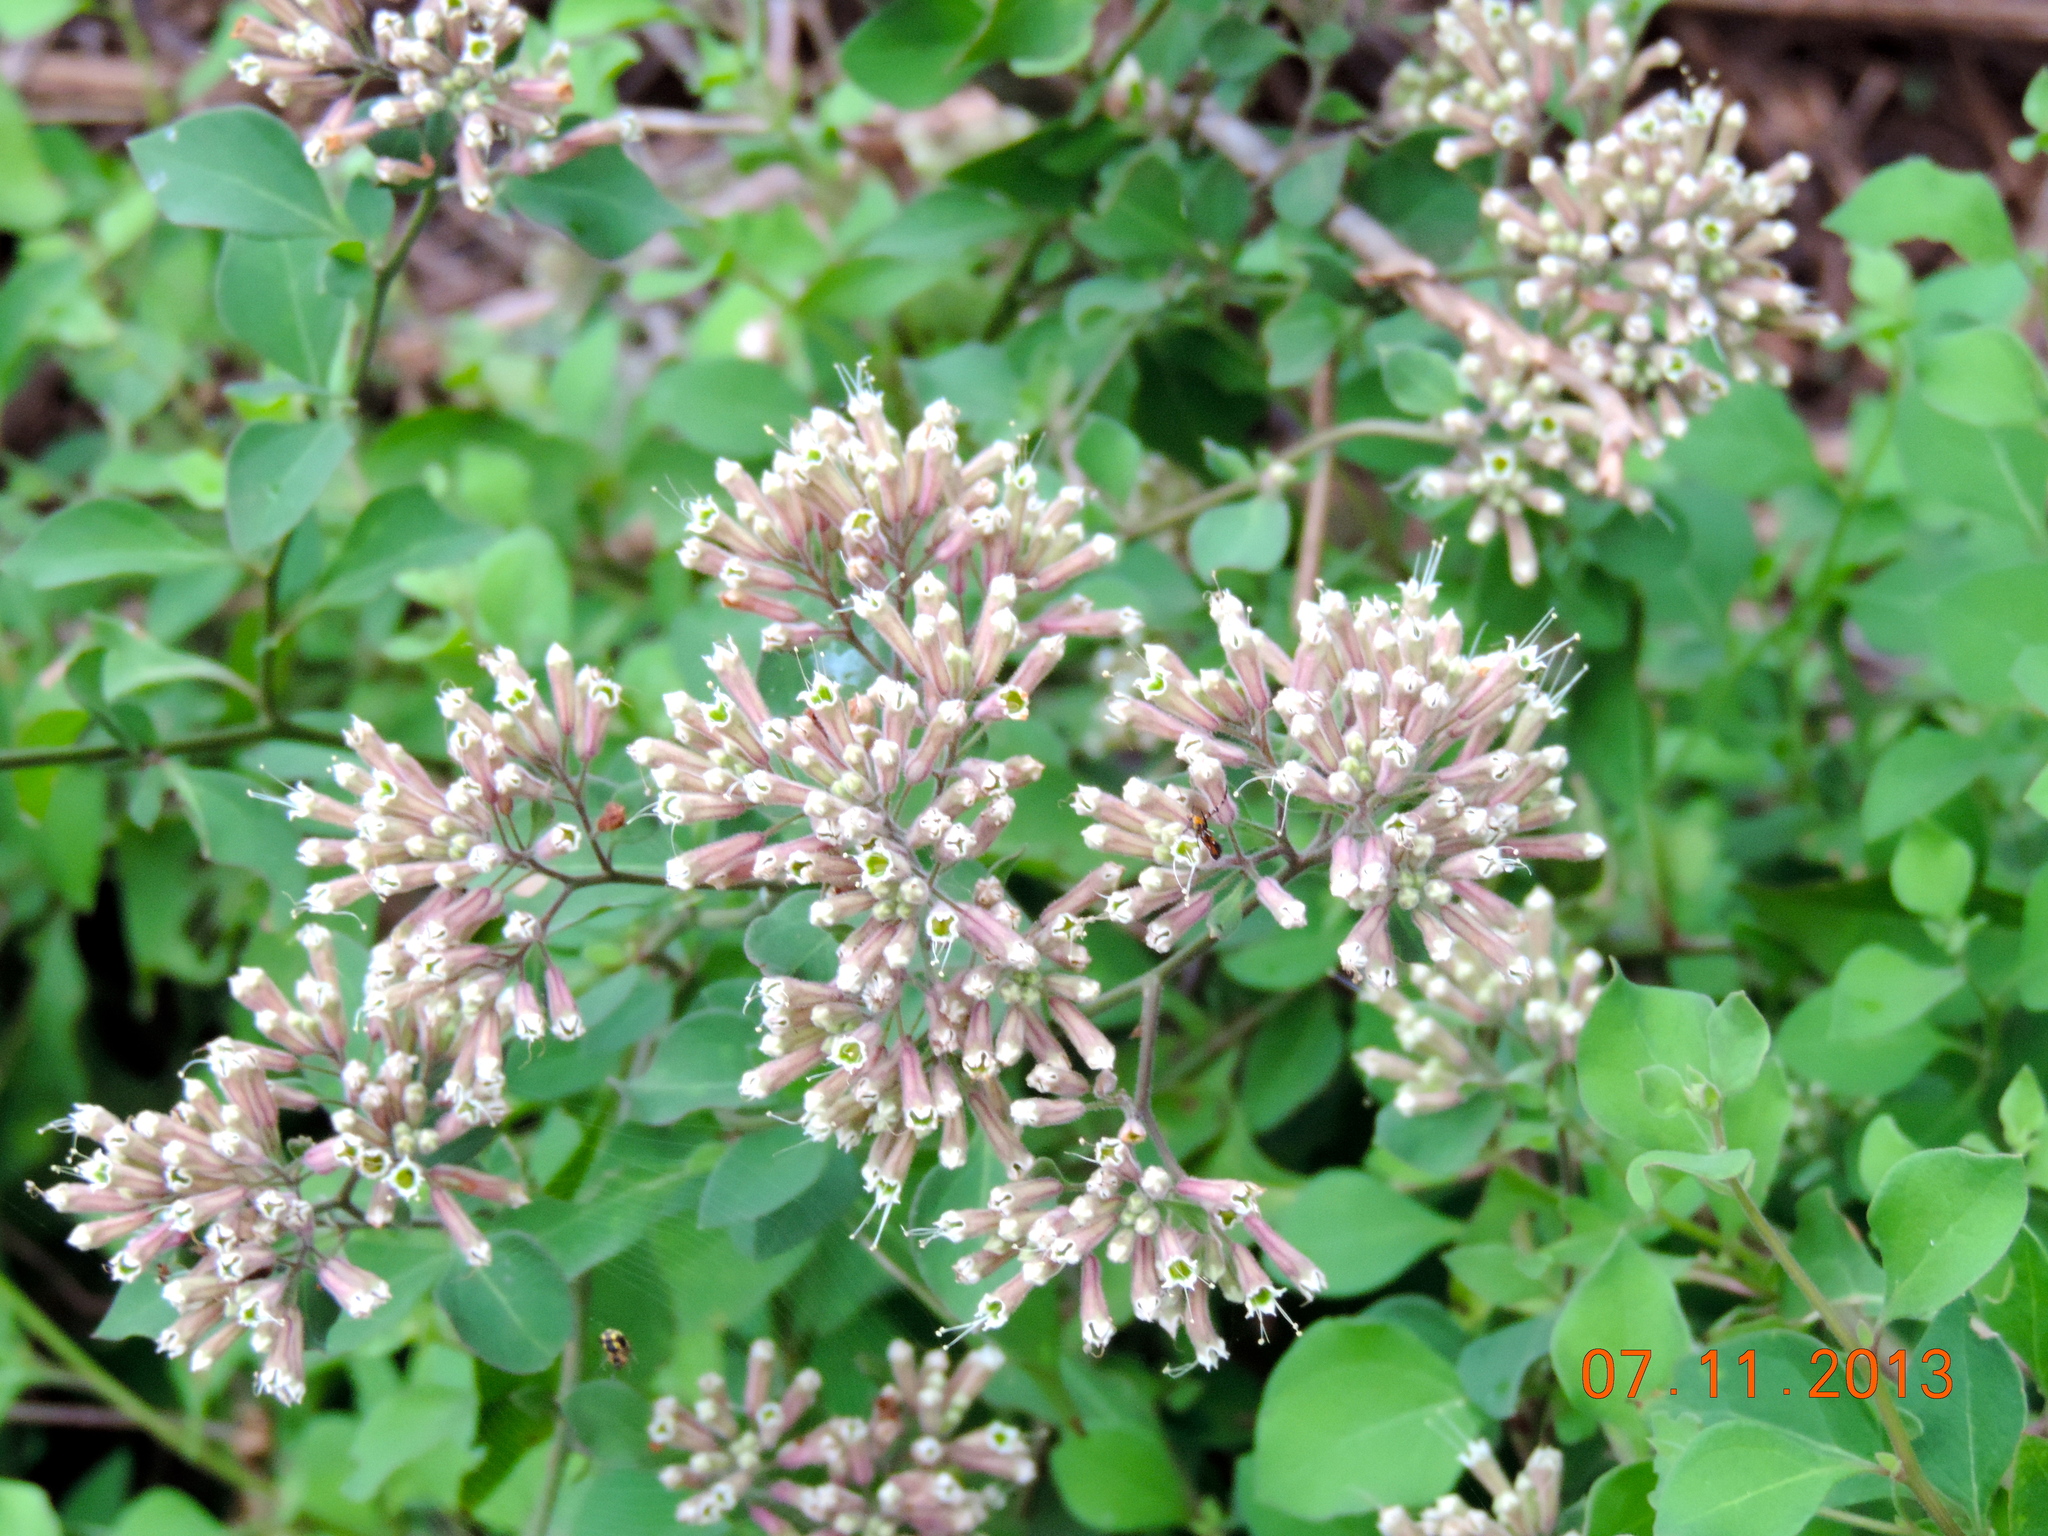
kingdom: Plantae
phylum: Tracheophyta
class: Magnoliopsida
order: Caryophyllales
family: Nyctaginaceae
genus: Salpianthus
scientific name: Salpianthus arenarius
